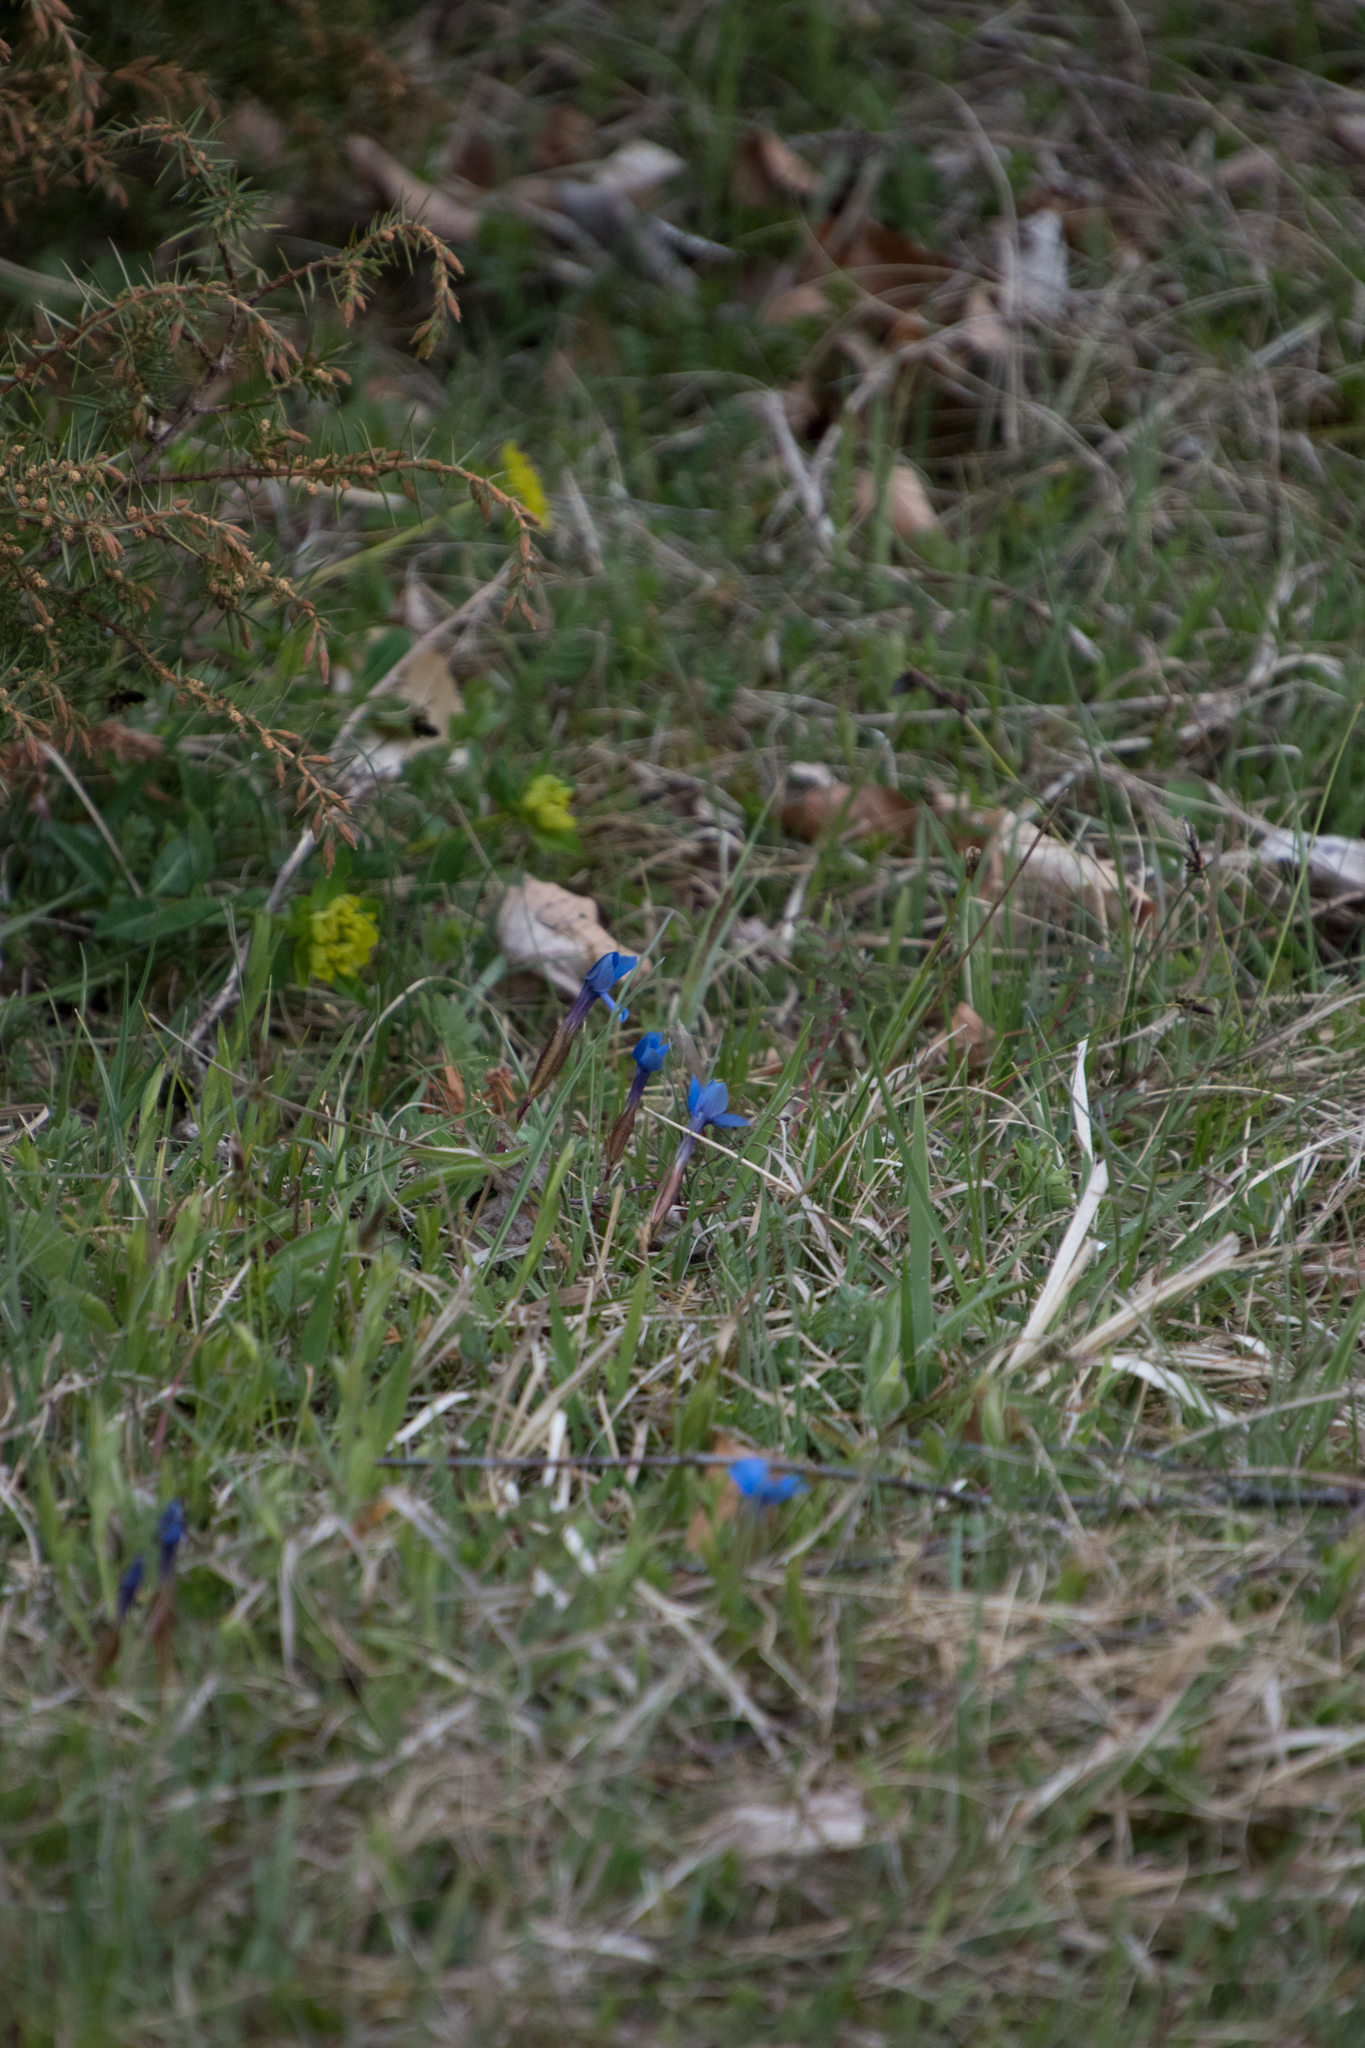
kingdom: Plantae
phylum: Tracheophyta
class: Magnoliopsida
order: Gentianales
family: Gentianaceae
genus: Gentiana
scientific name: Gentiana verna
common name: Spring gentian
